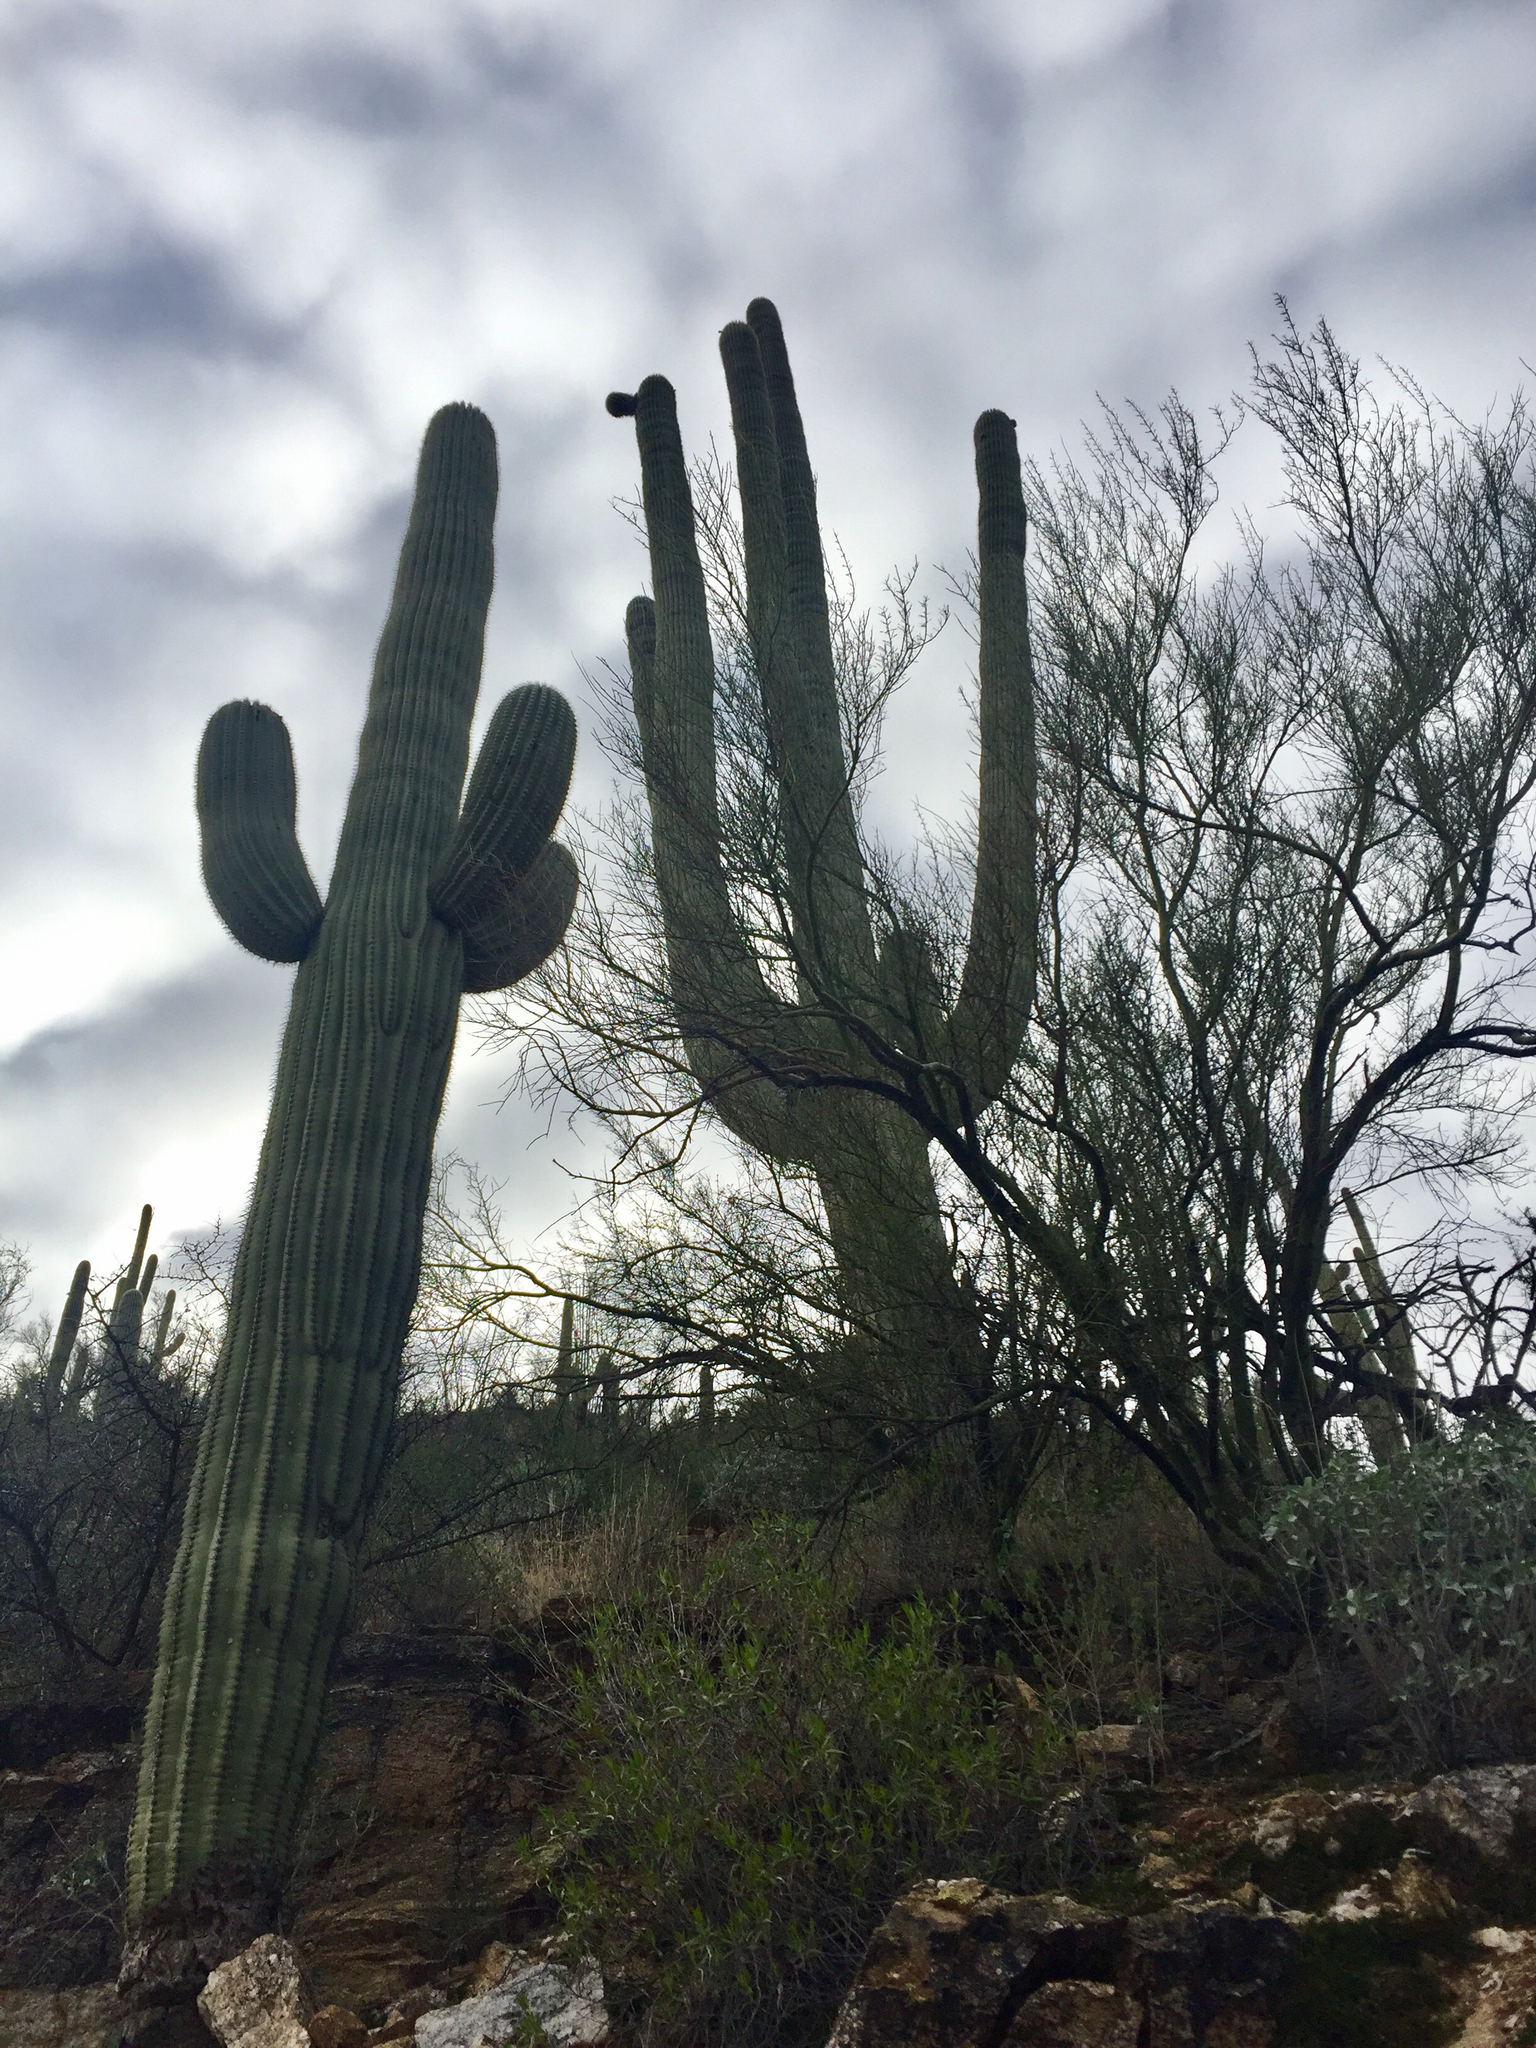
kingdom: Plantae
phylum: Tracheophyta
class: Magnoliopsida
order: Caryophyllales
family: Cactaceae
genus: Carnegiea
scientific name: Carnegiea gigantea
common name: Saguaro
